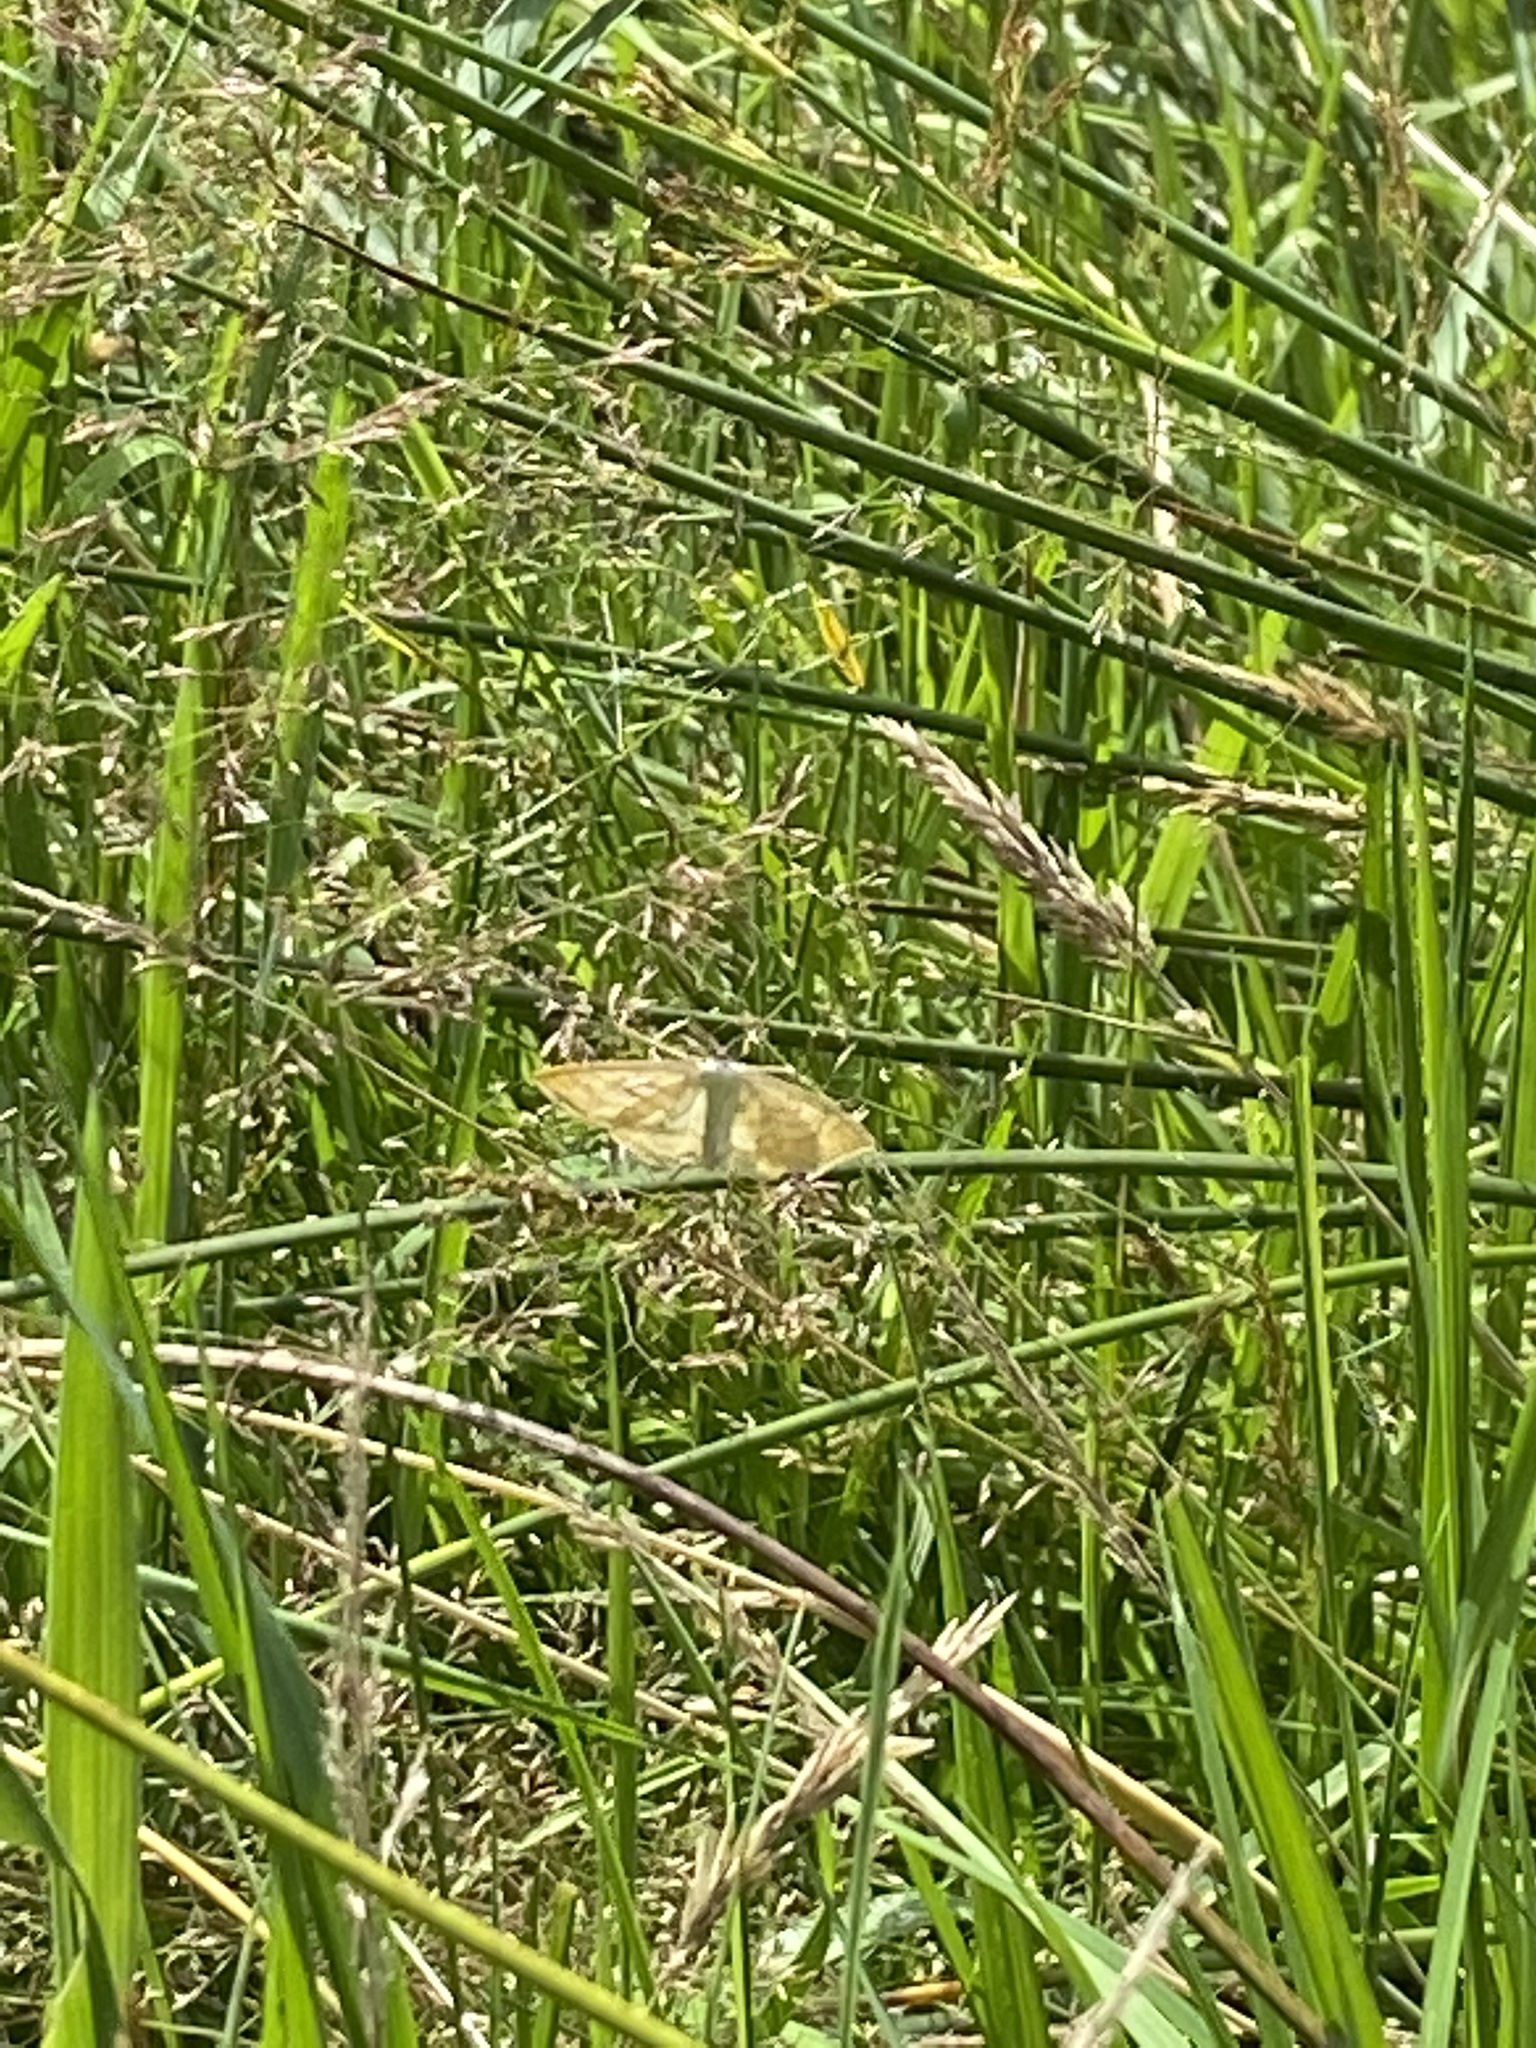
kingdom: Animalia
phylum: Arthropoda
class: Insecta
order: Lepidoptera
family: Geometridae
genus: Scopula
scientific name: Scopula immutata
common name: Lesser cream wave
